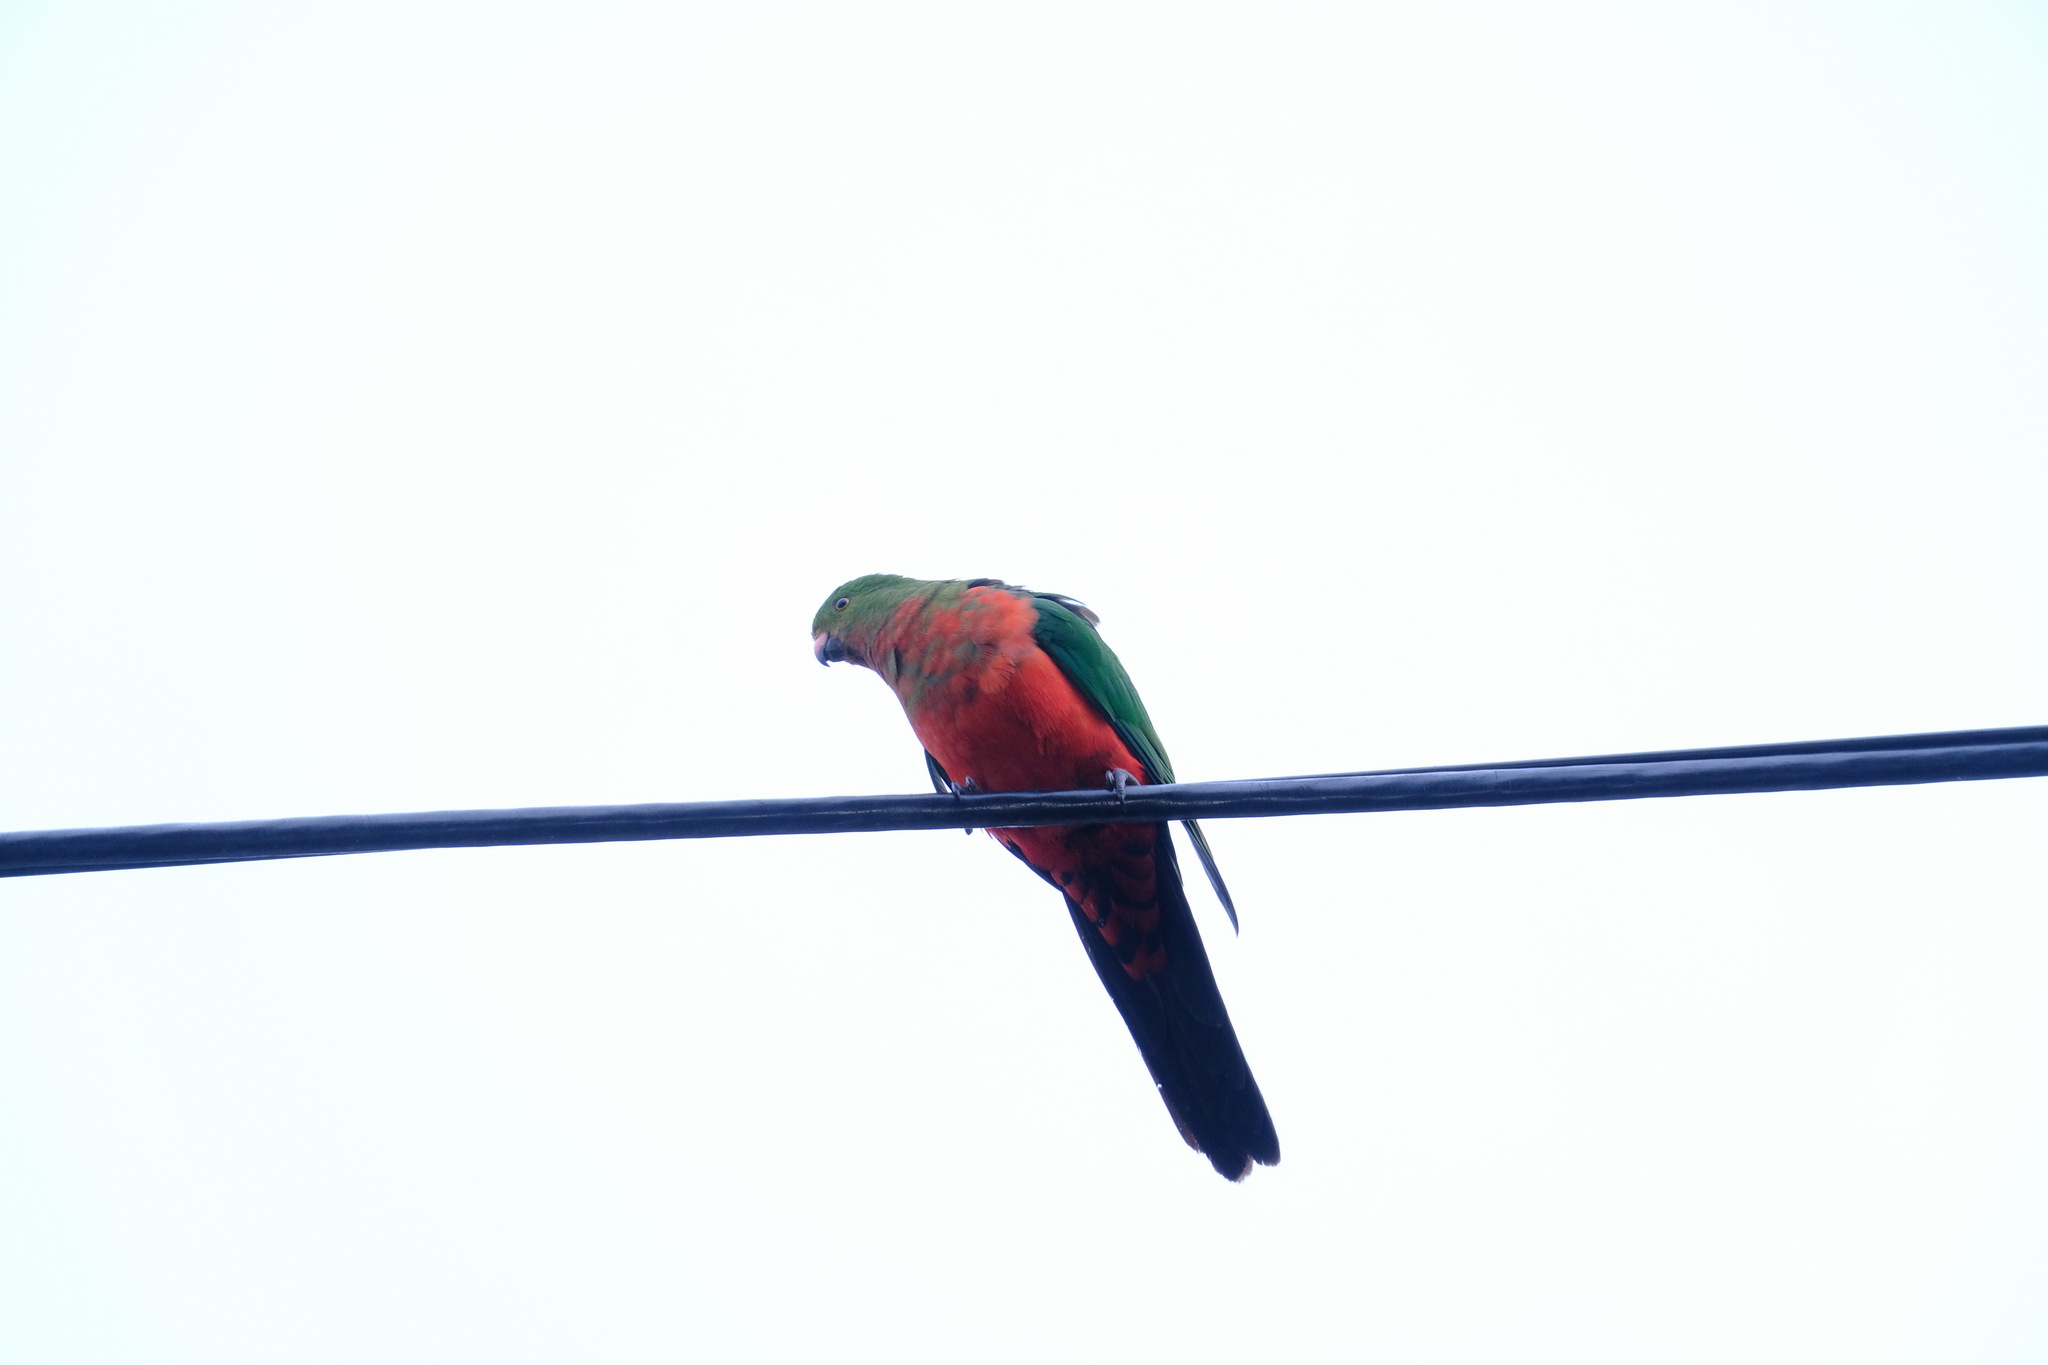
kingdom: Animalia
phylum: Chordata
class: Aves
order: Psittaciformes
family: Psittacidae
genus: Alisterus
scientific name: Alisterus scapularis
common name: Australian king parrot
